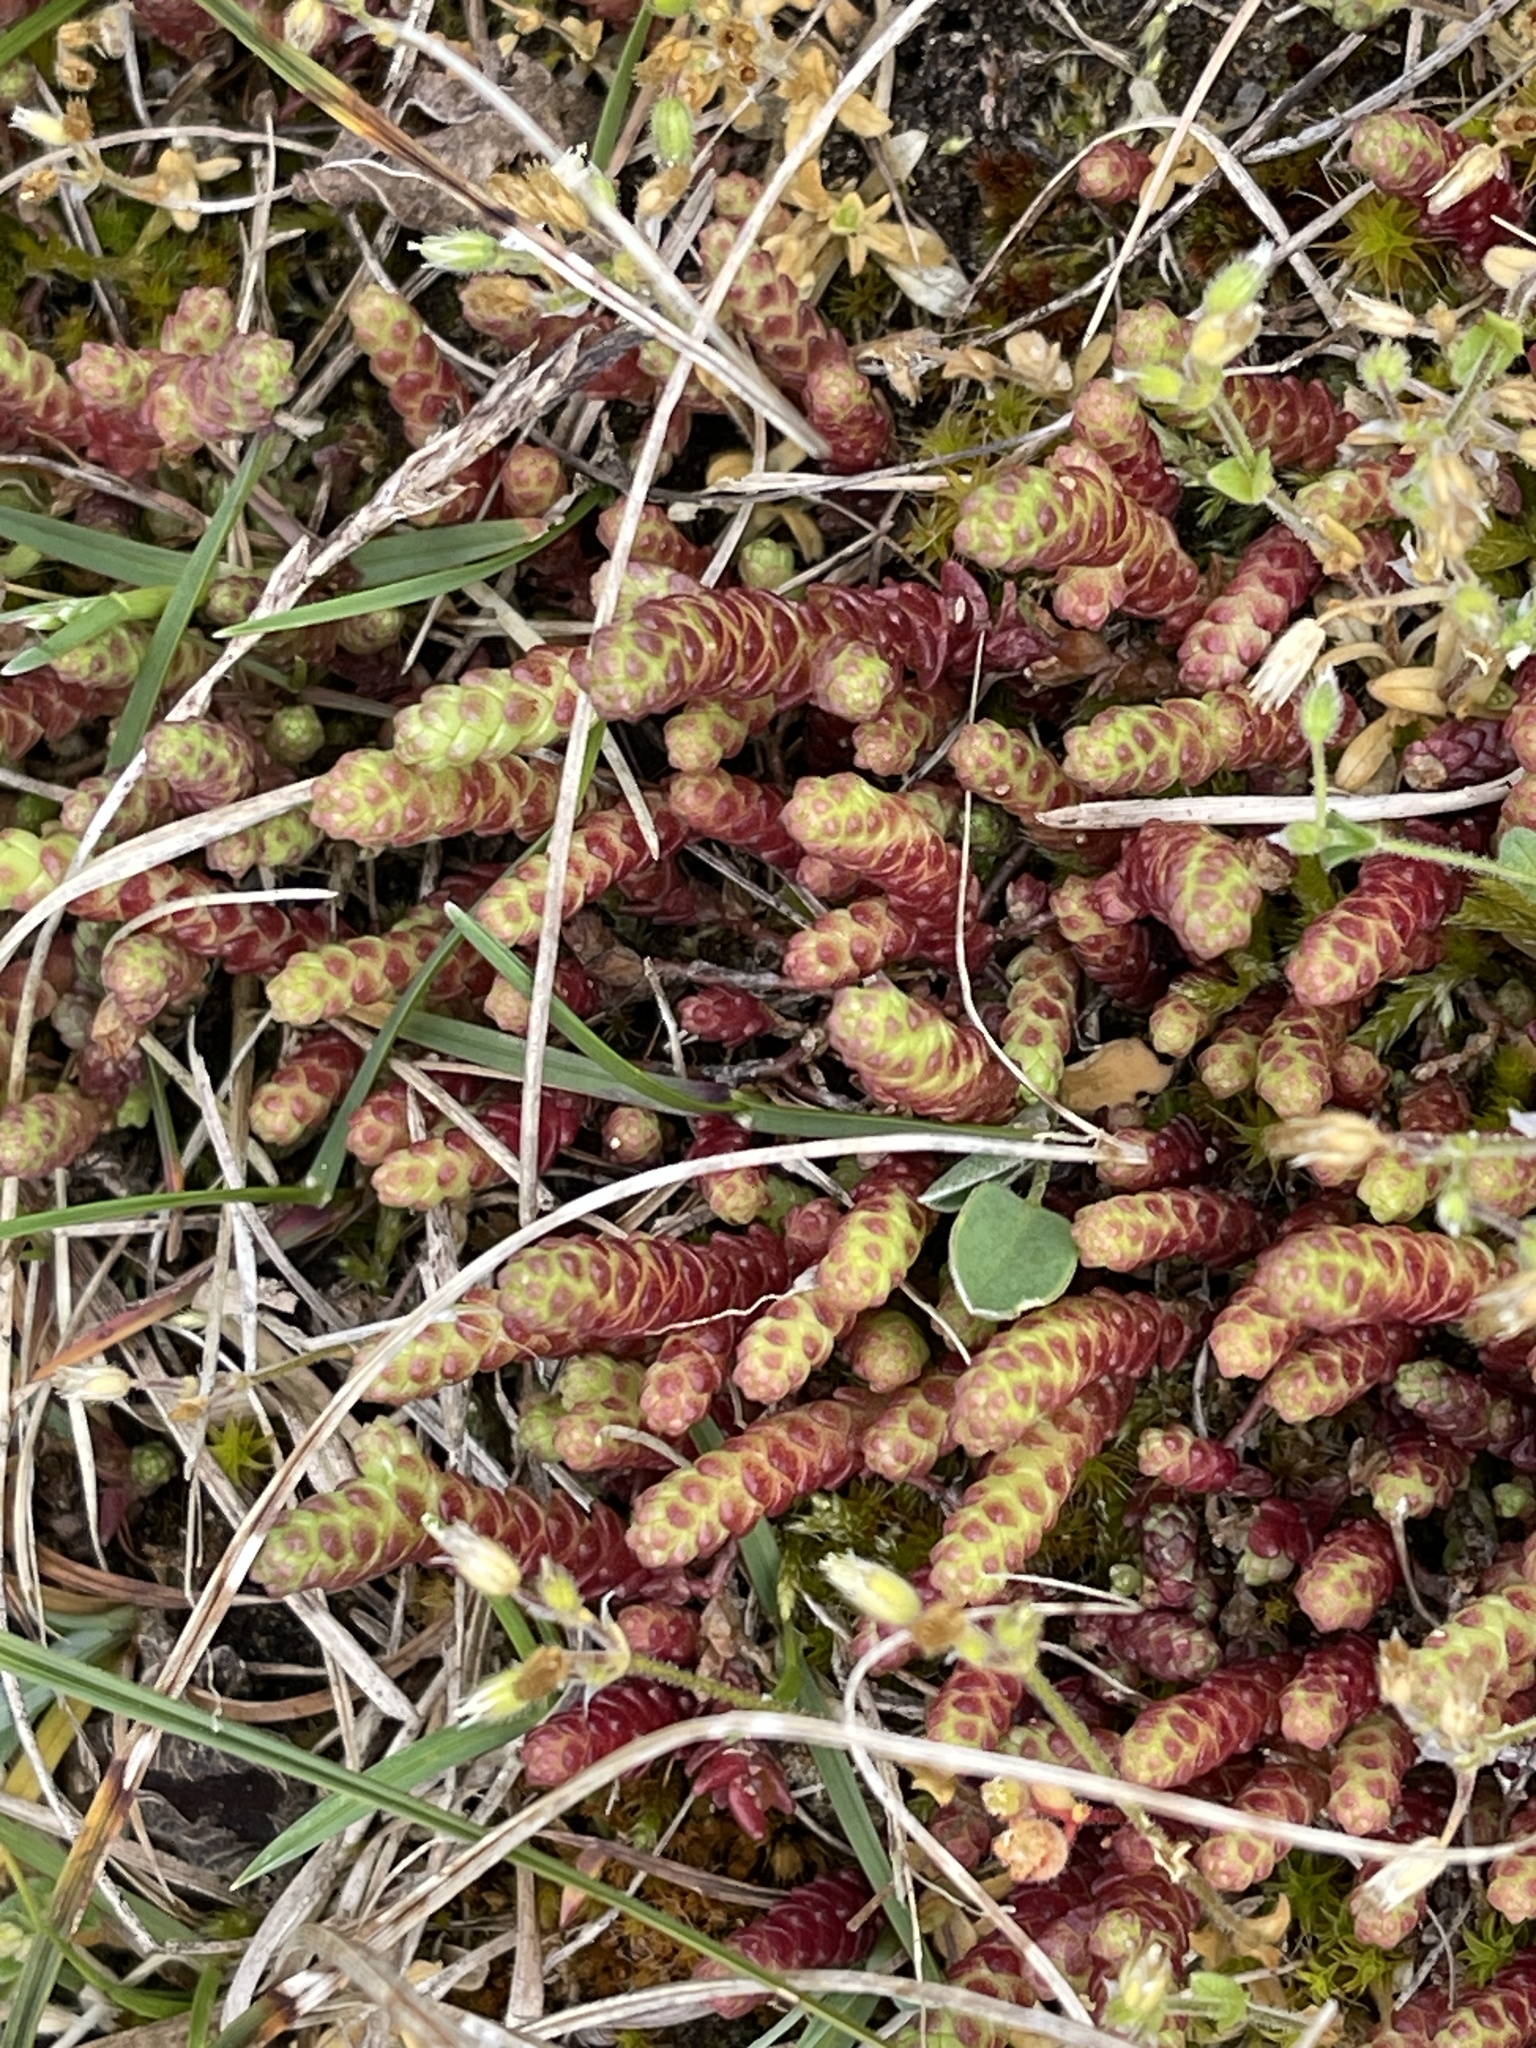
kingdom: Plantae
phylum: Tracheophyta
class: Magnoliopsida
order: Saxifragales
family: Crassulaceae
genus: Sedum
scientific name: Sedum acre
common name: Biting stonecrop
